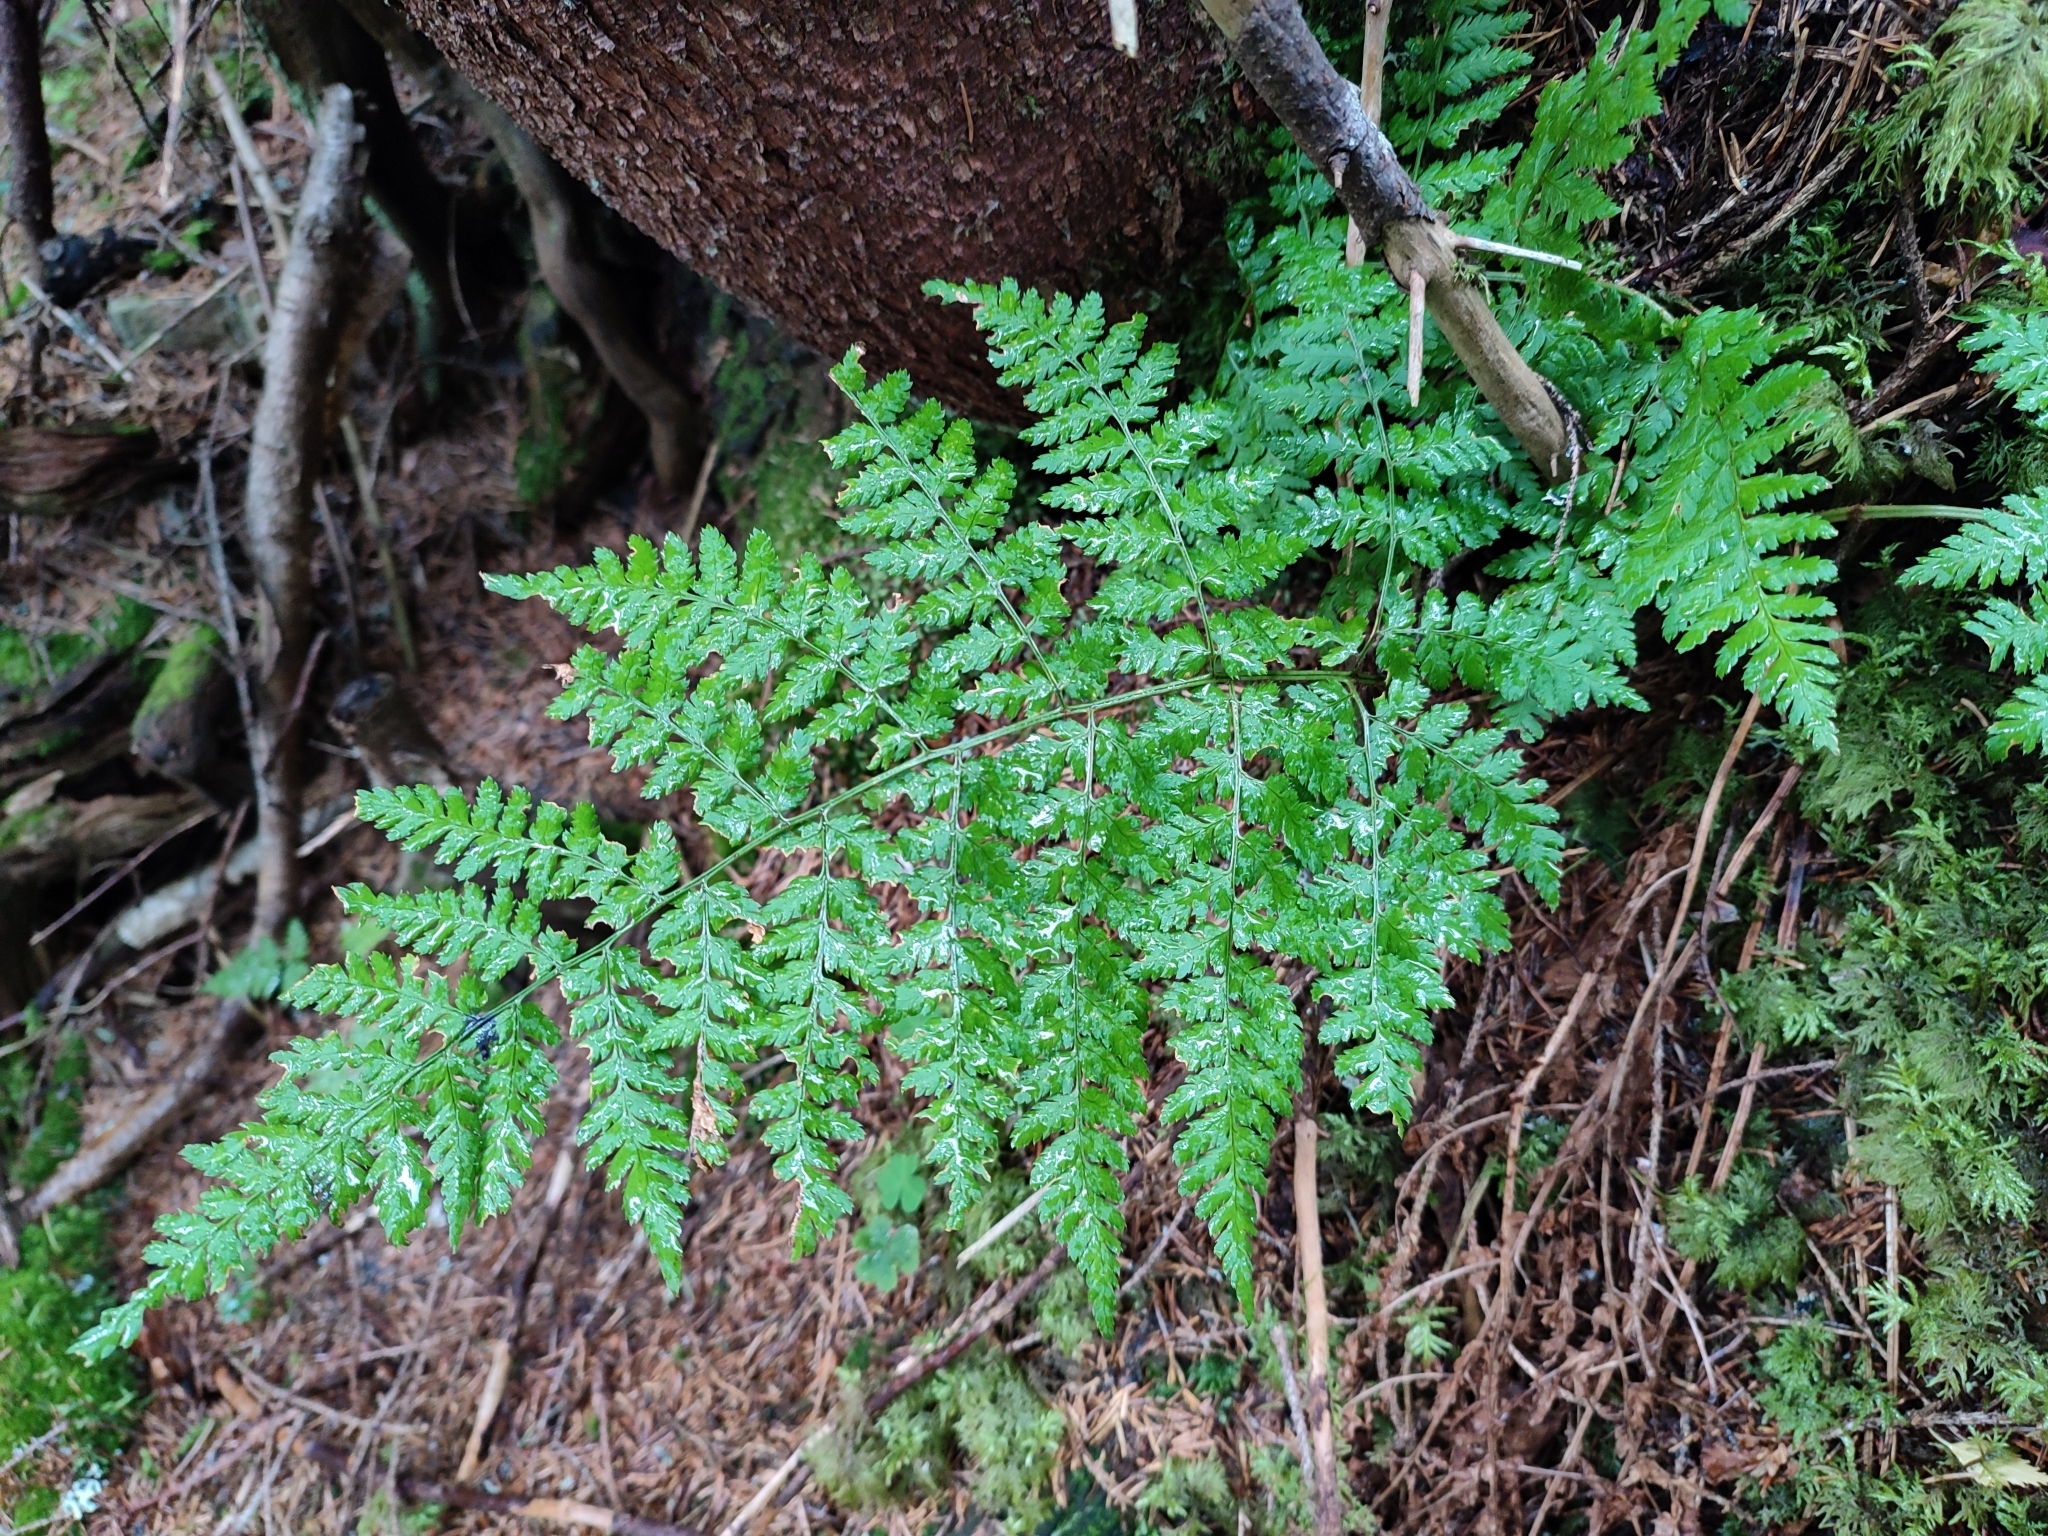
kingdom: Plantae
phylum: Tracheophyta
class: Polypodiopsida
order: Polypodiales
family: Dryopteridaceae
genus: Dryopteris
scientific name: Dryopteris carthusiana
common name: Narrow buckler-fern
